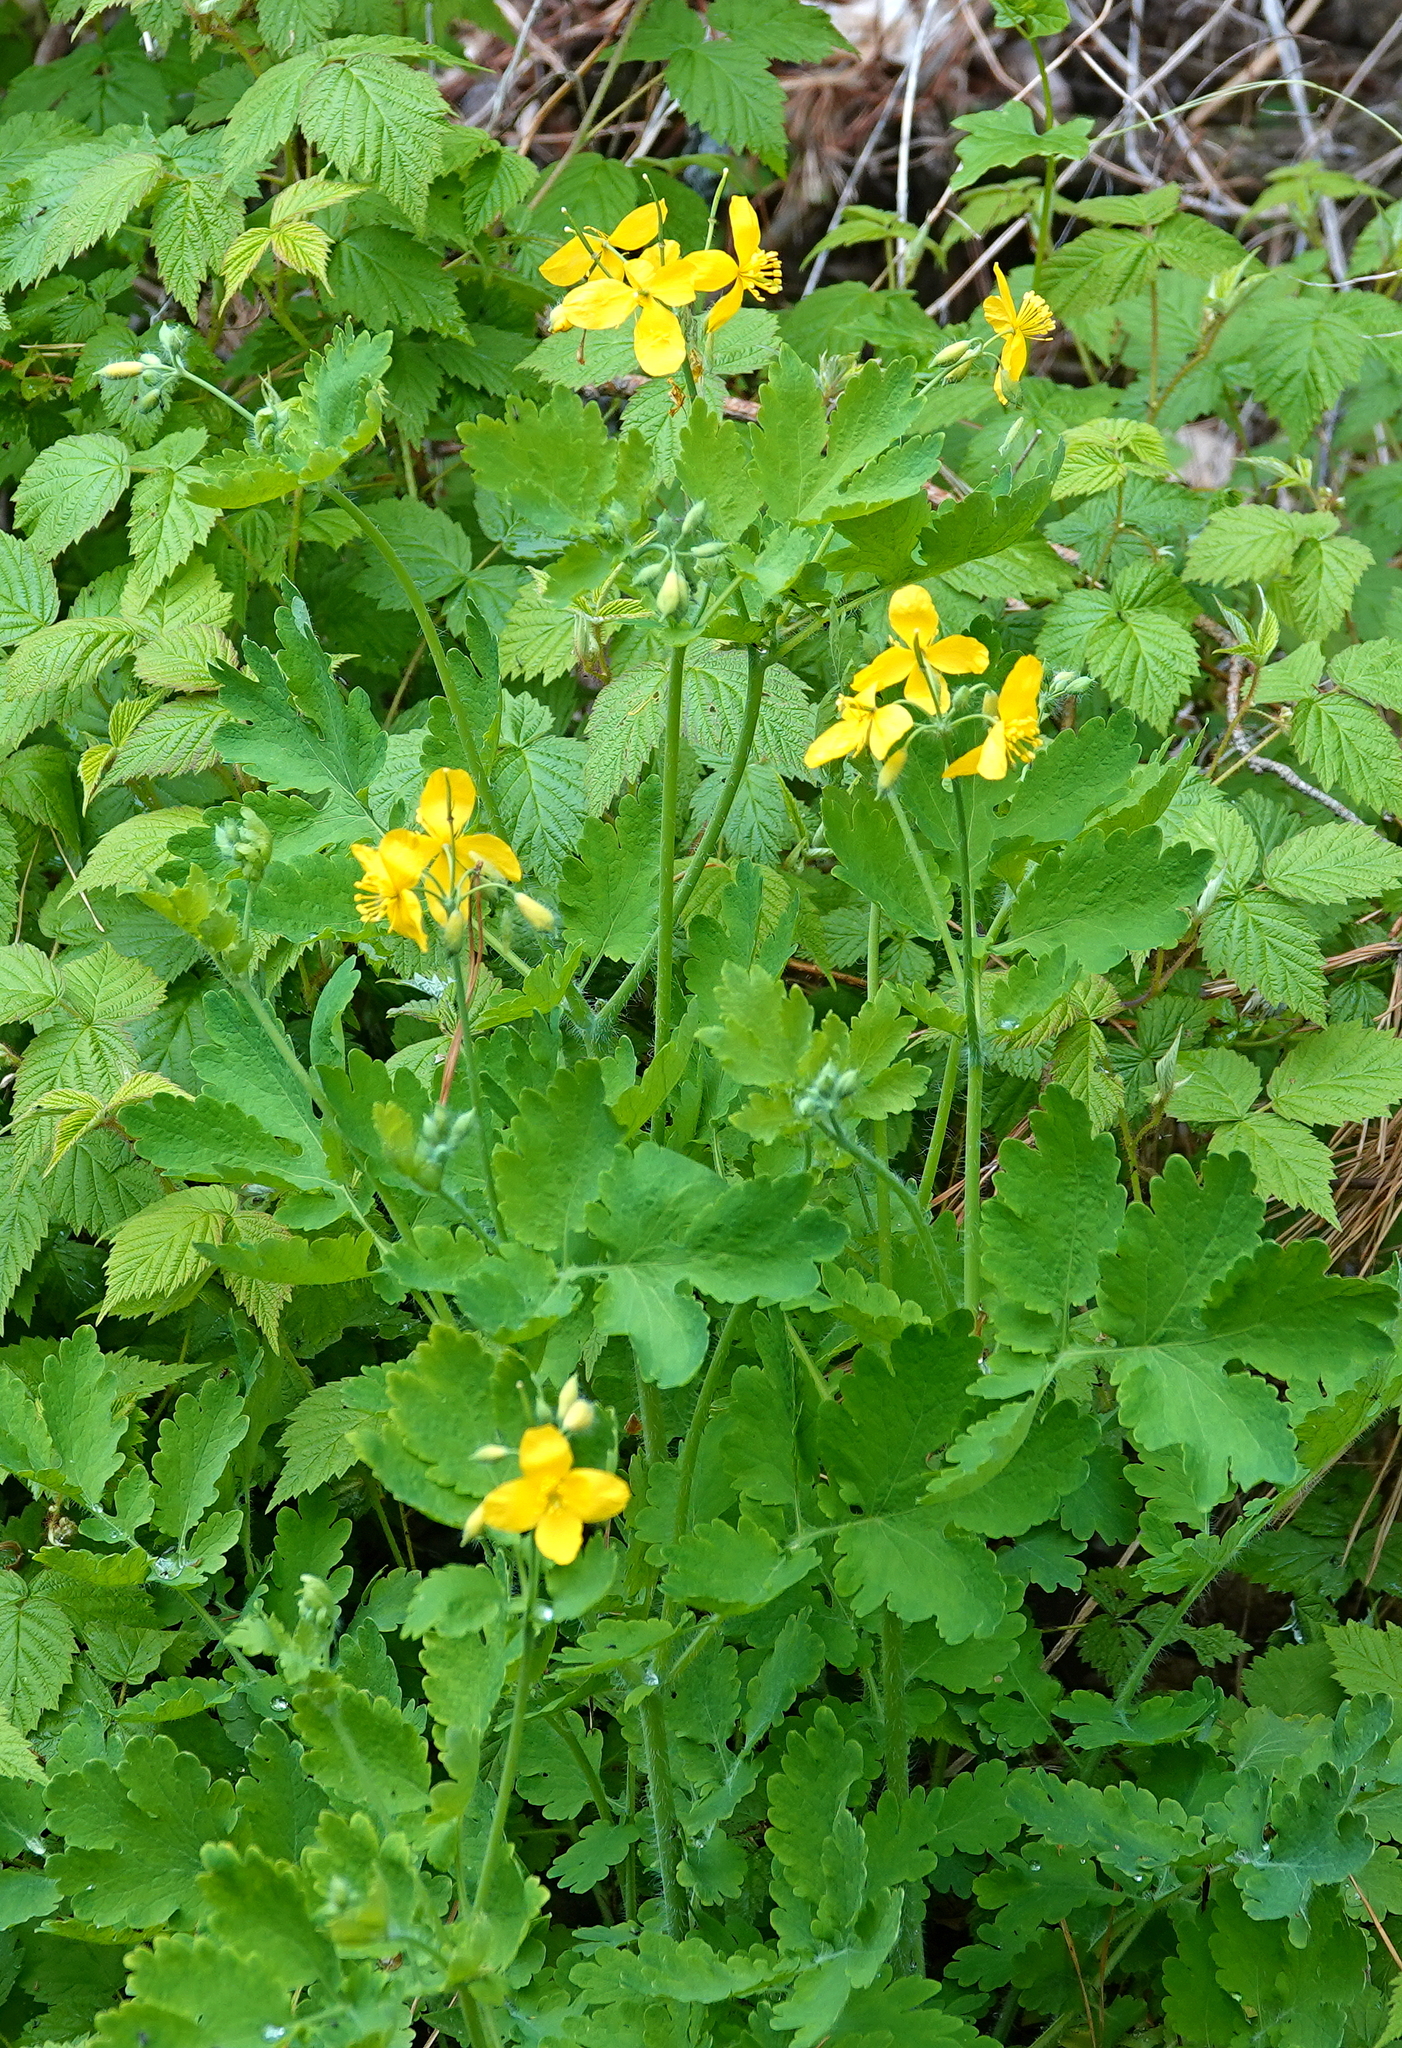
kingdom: Plantae
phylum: Tracheophyta
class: Magnoliopsida
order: Ranunculales
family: Papaveraceae
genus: Chelidonium
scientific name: Chelidonium majus
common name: Greater celandine
